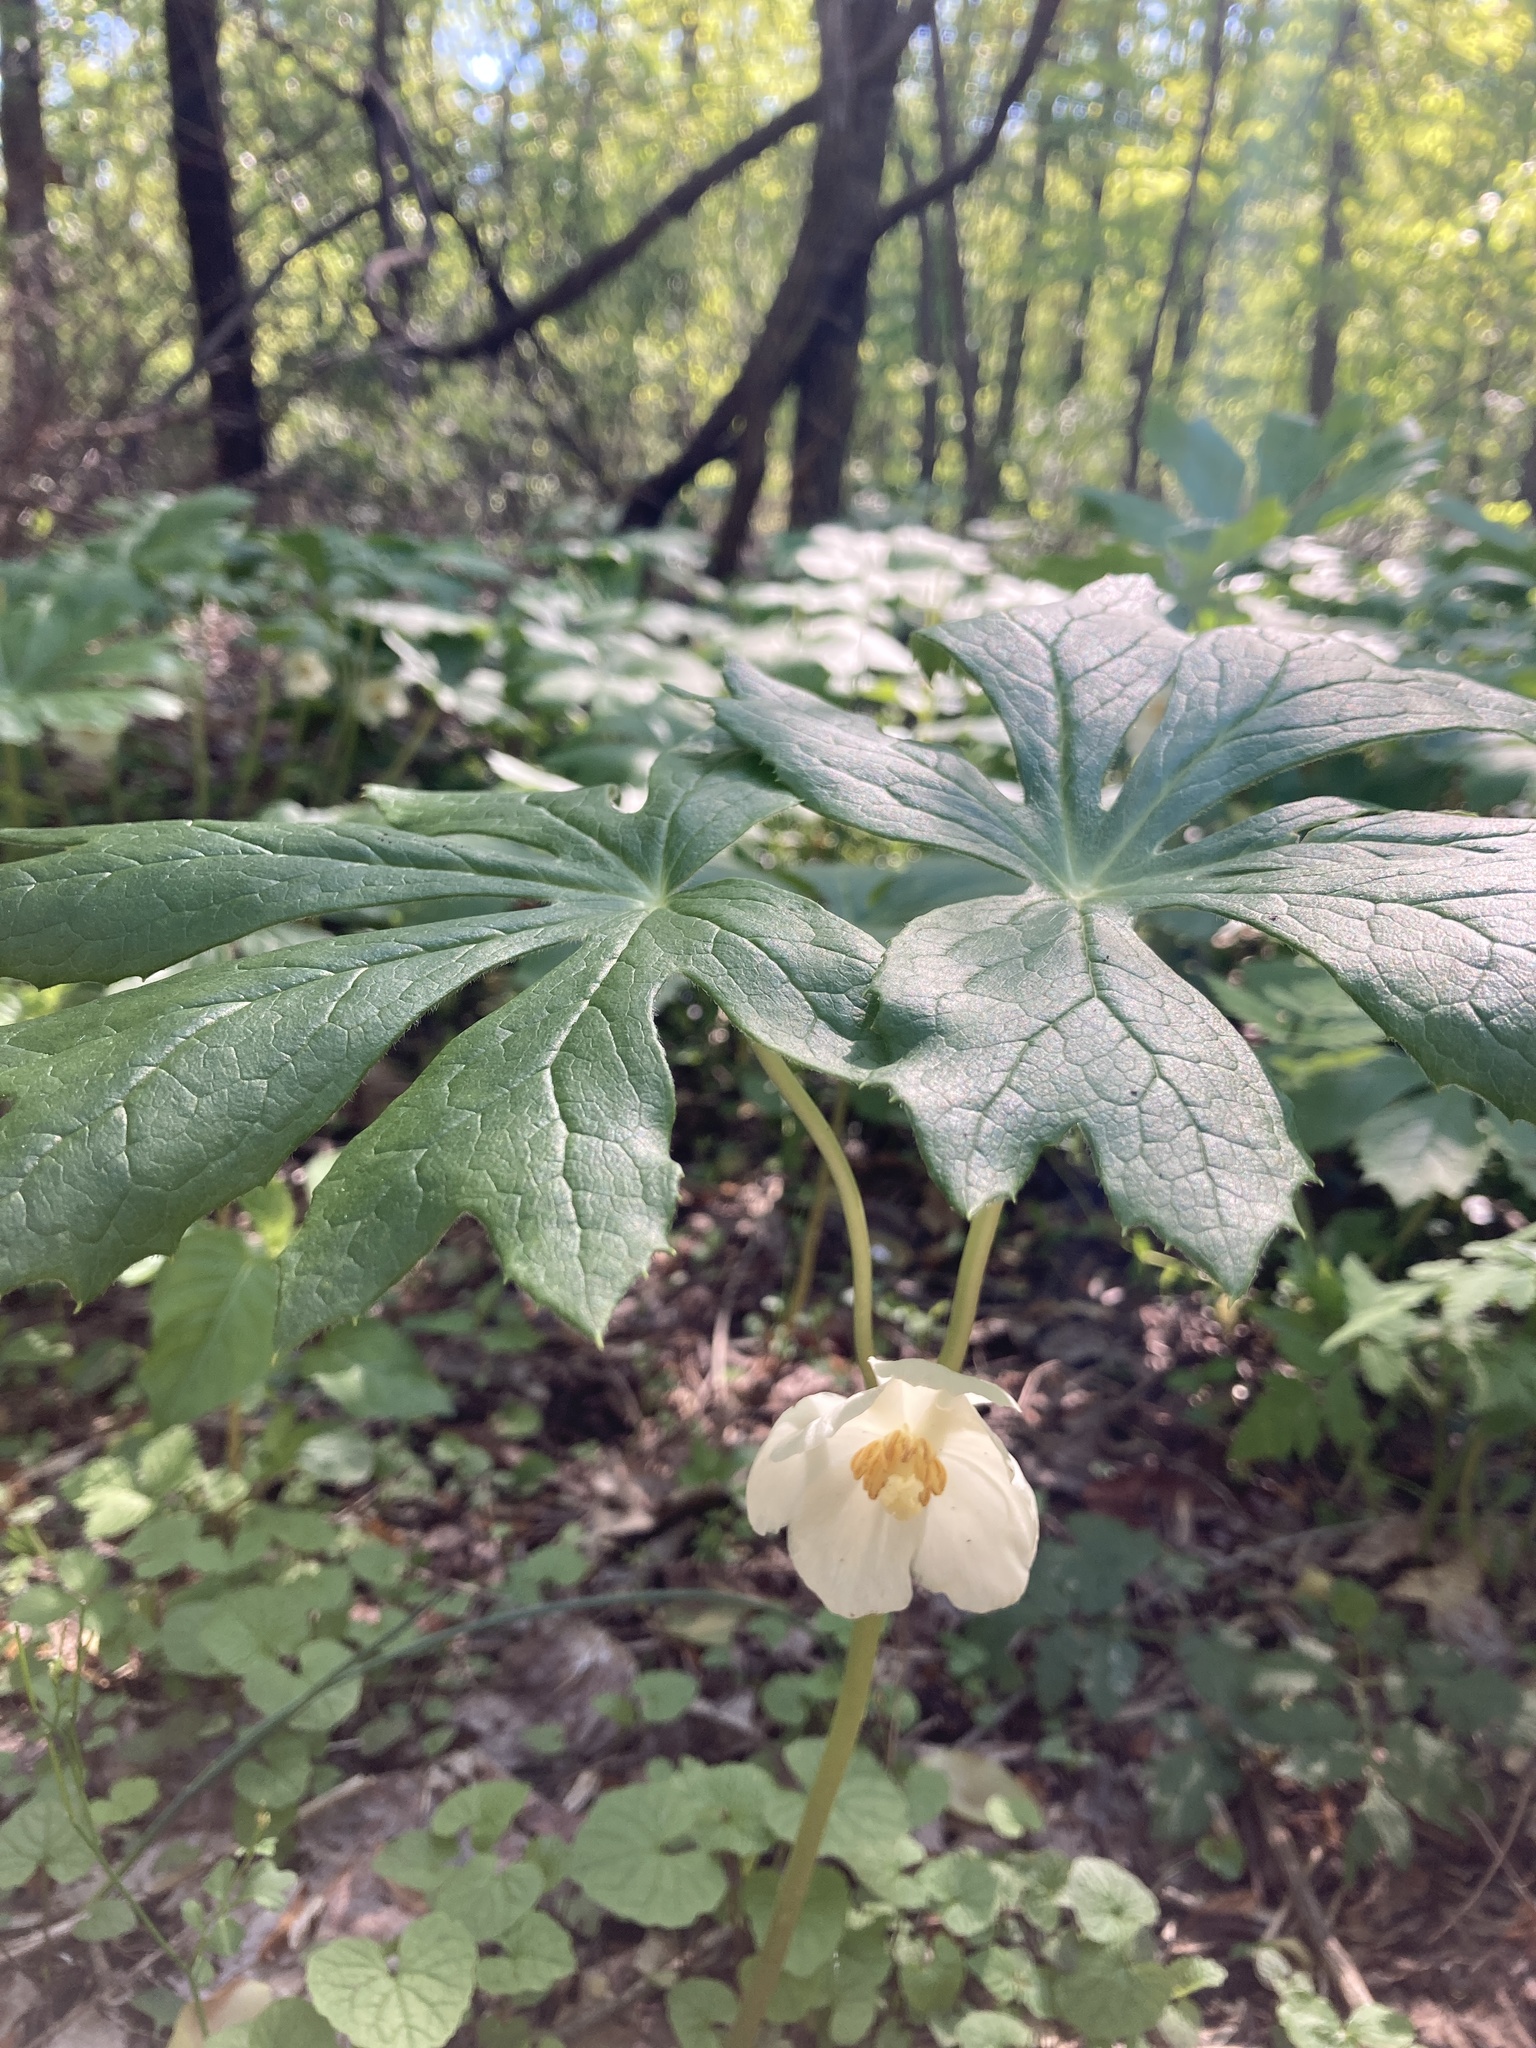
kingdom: Plantae
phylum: Tracheophyta
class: Magnoliopsida
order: Ranunculales
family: Berberidaceae
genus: Podophyllum
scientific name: Podophyllum peltatum
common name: Wild mandrake
